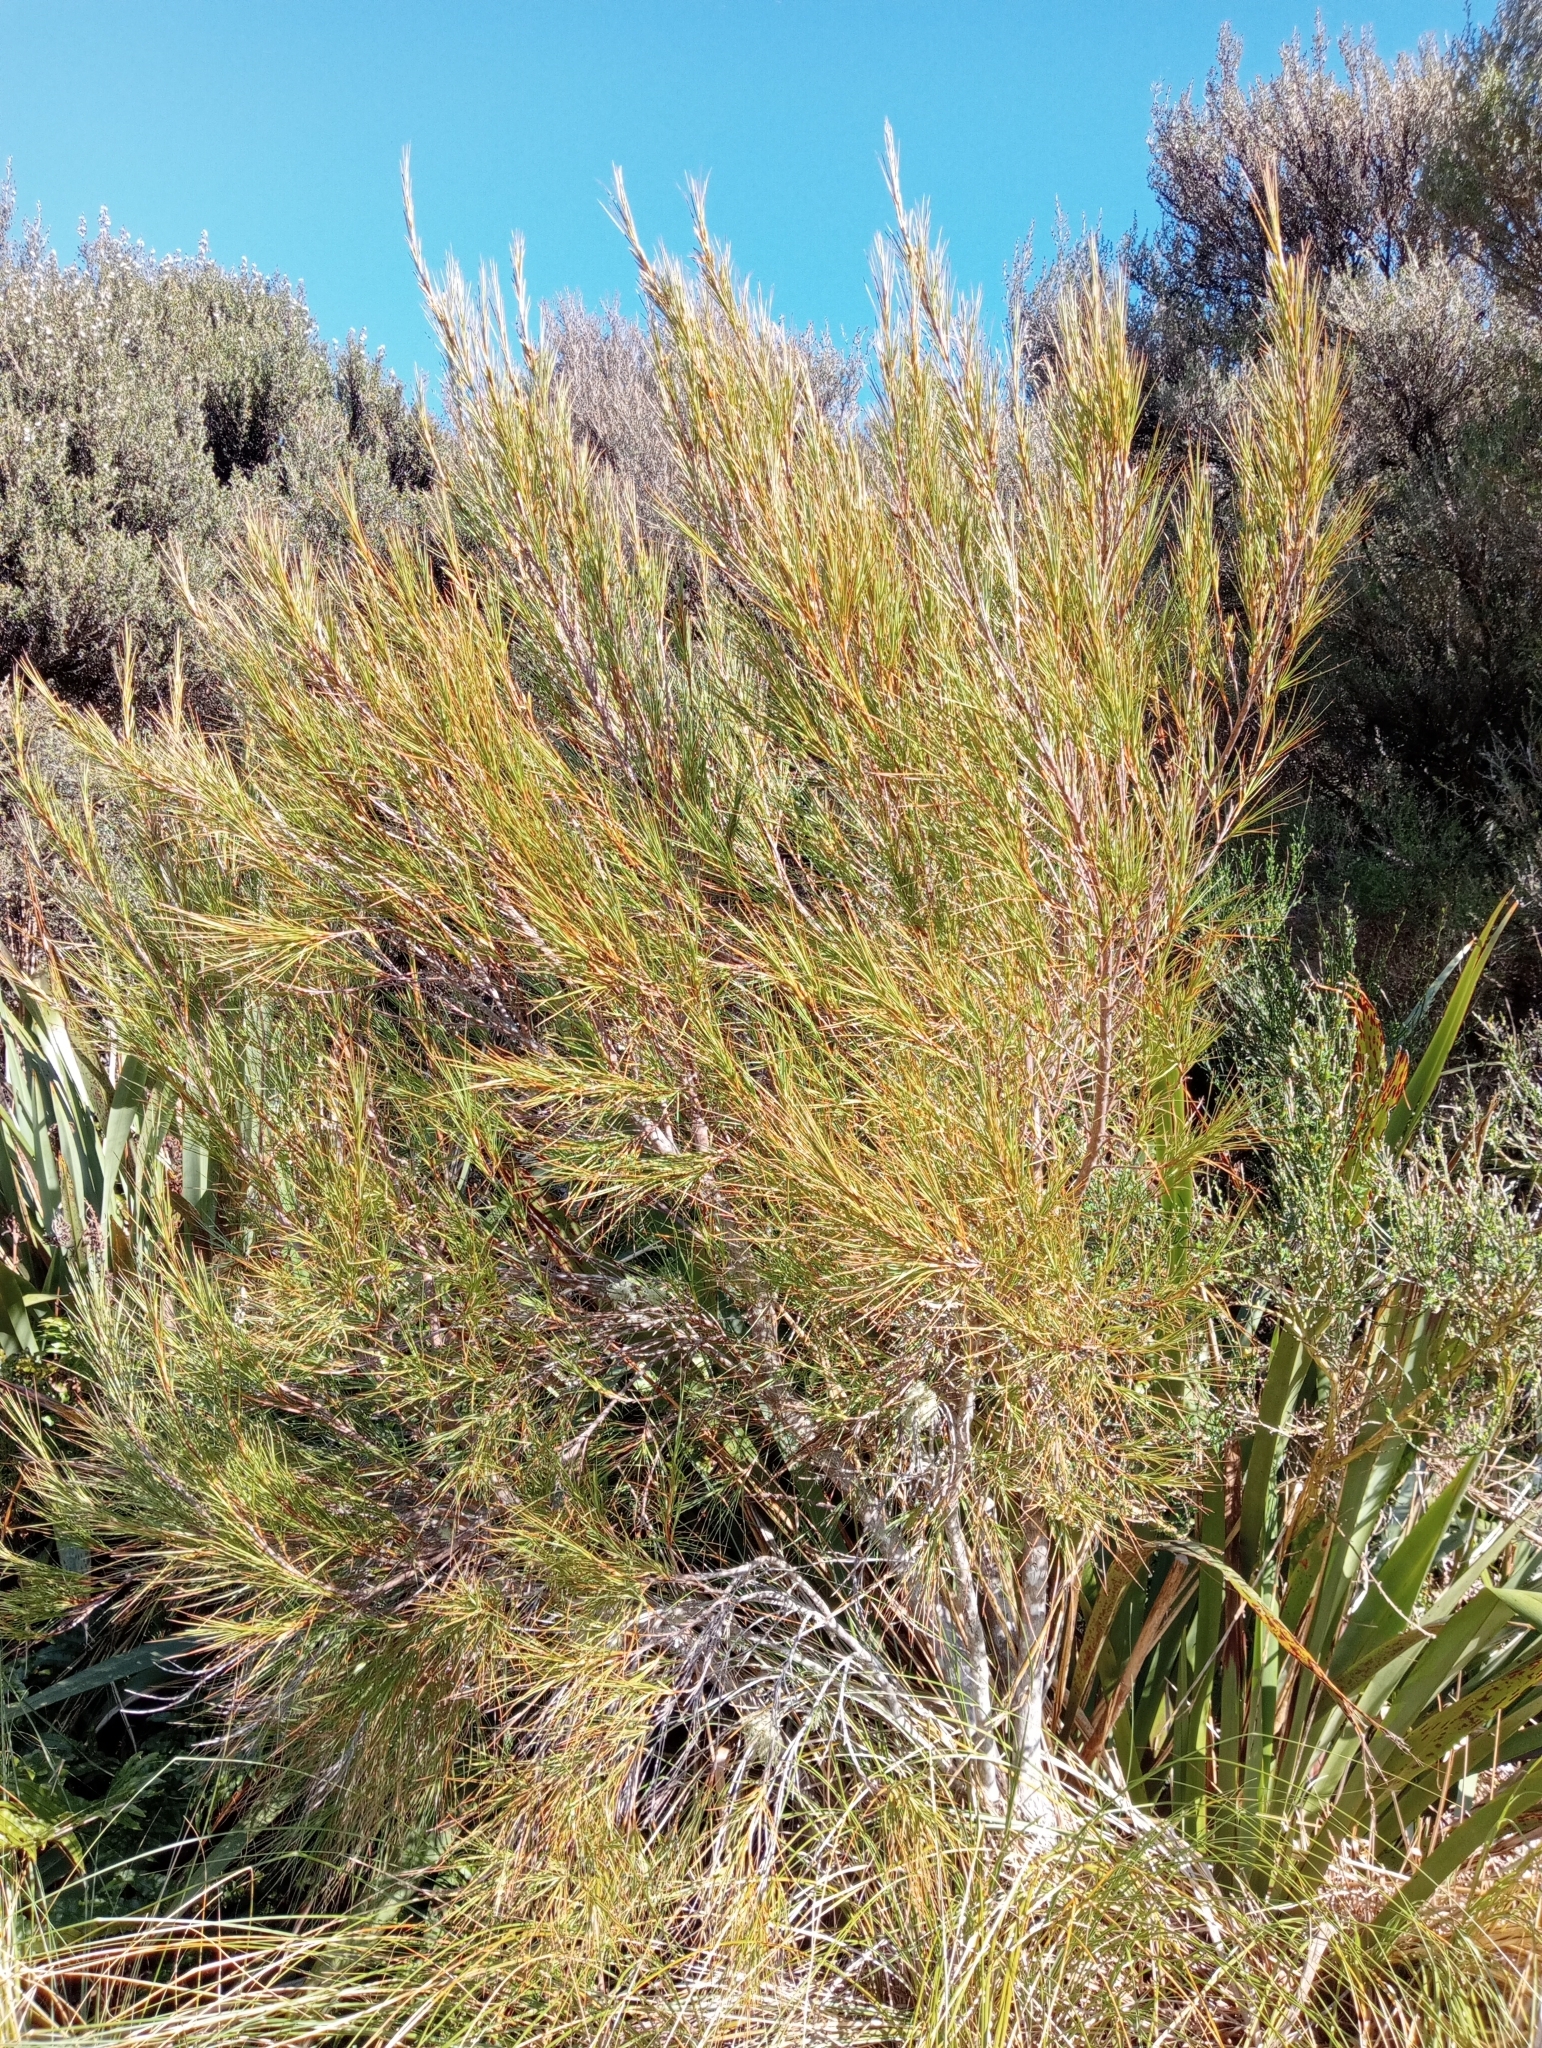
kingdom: Plantae
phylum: Tracheophyta
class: Magnoliopsida
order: Ericales
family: Ericaceae
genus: Dracophyllum
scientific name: Dracophyllum longifolium
